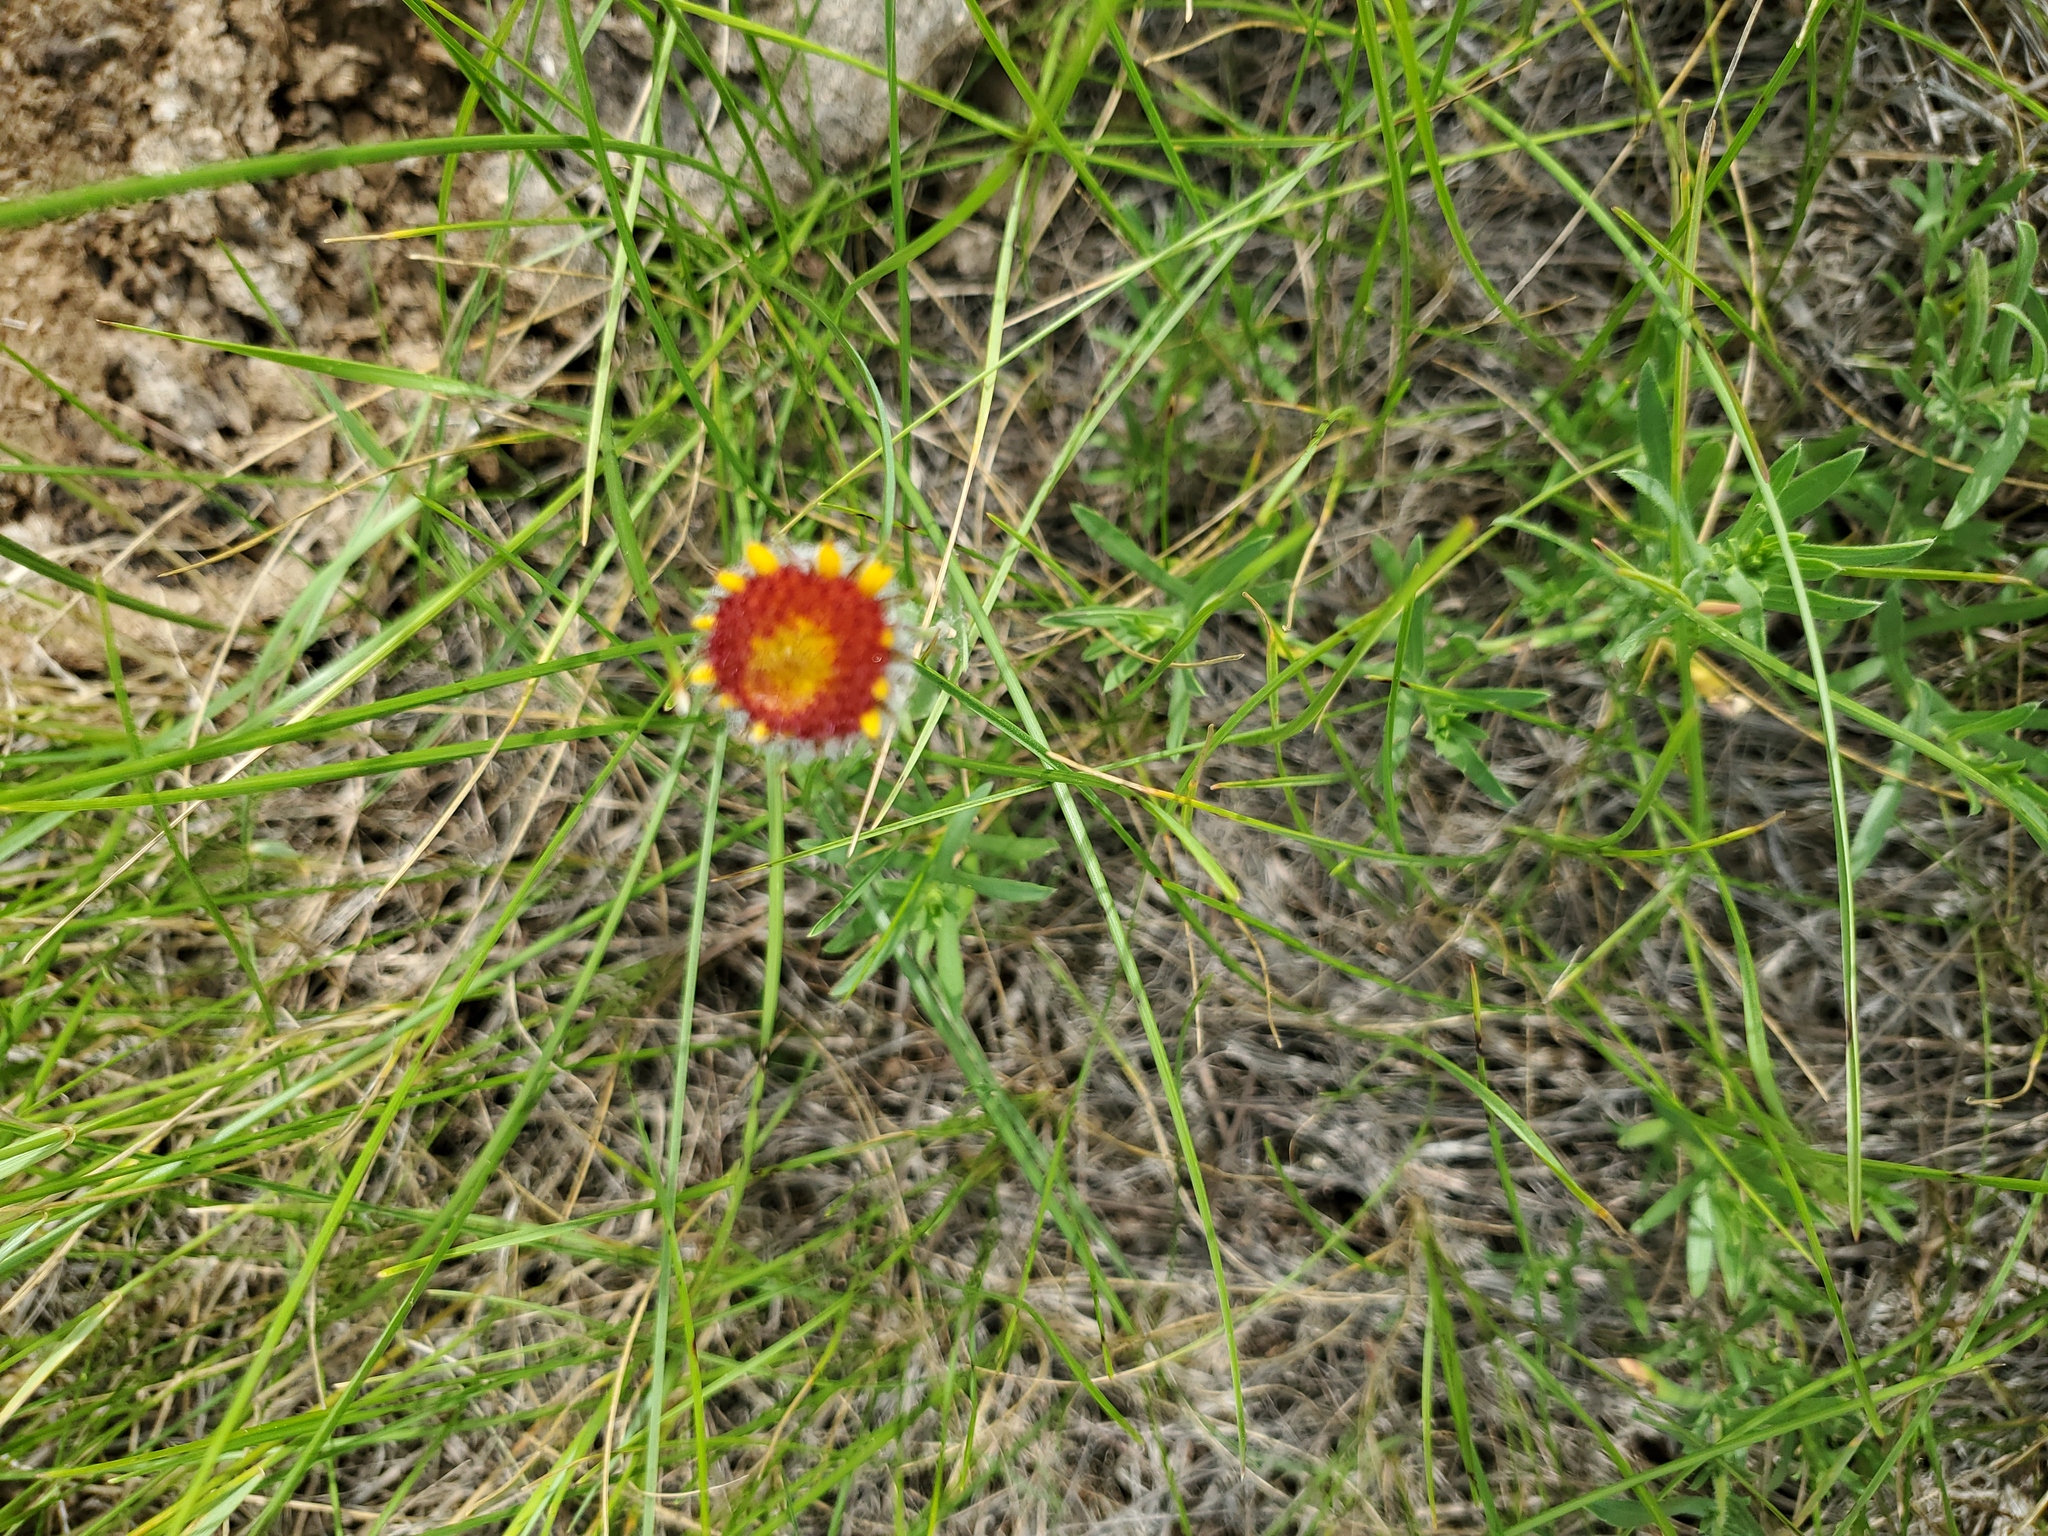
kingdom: Plantae
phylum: Tracheophyta
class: Magnoliopsida
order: Asterales
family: Asteraceae
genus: Gaillardia
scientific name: Gaillardia aristata
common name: Blanket-flower
